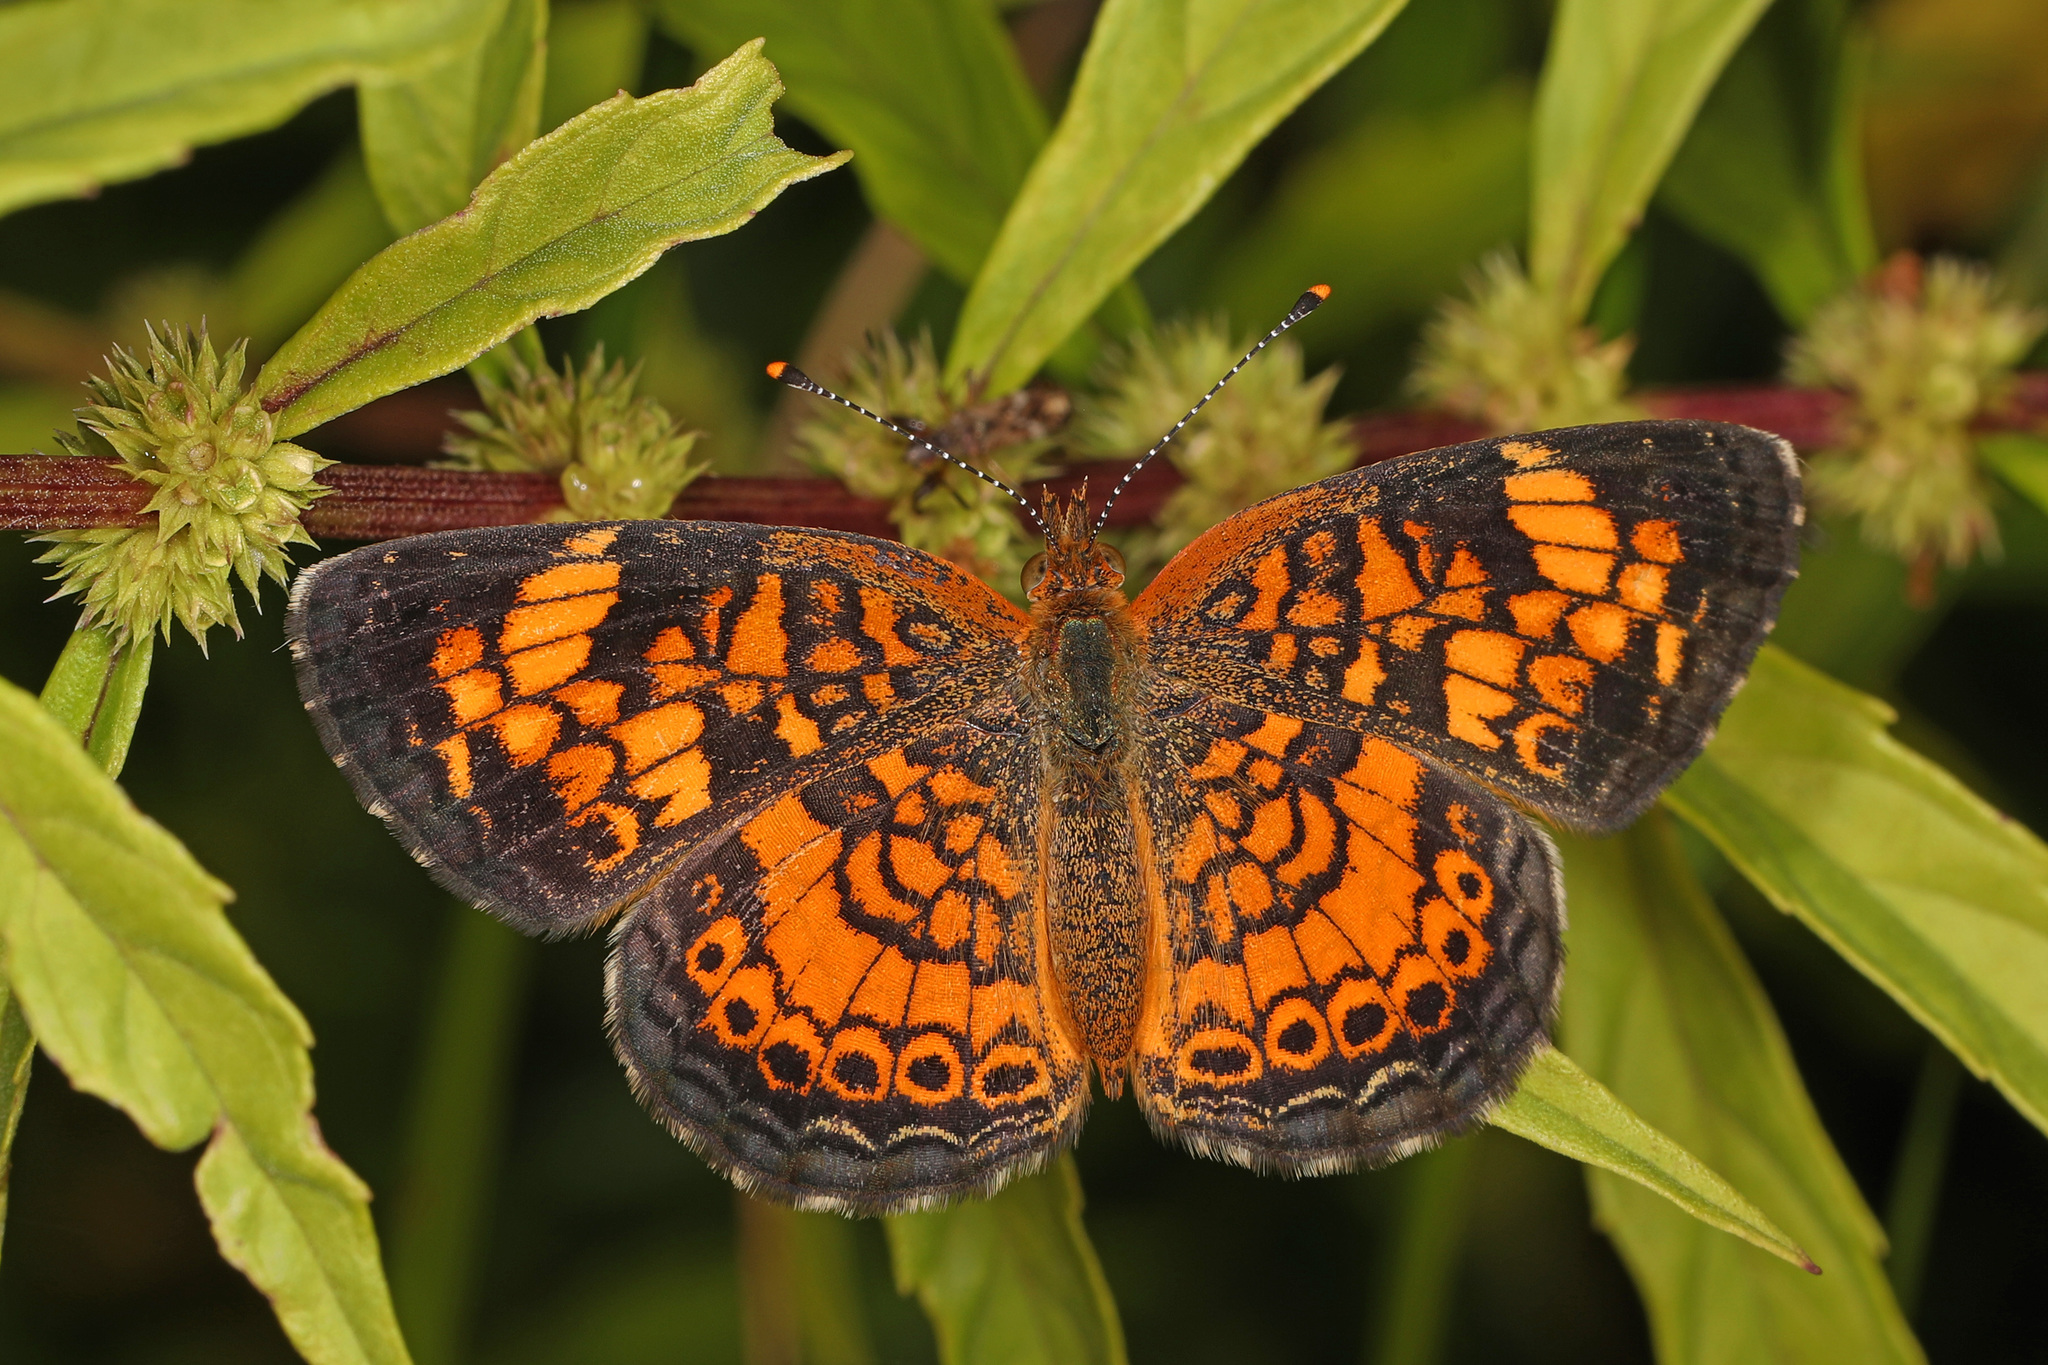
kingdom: Animalia
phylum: Arthropoda
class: Insecta
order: Lepidoptera
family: Nymphalidae
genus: Phyciodes
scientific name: Phyciodes tharos
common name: Pearl crescent
